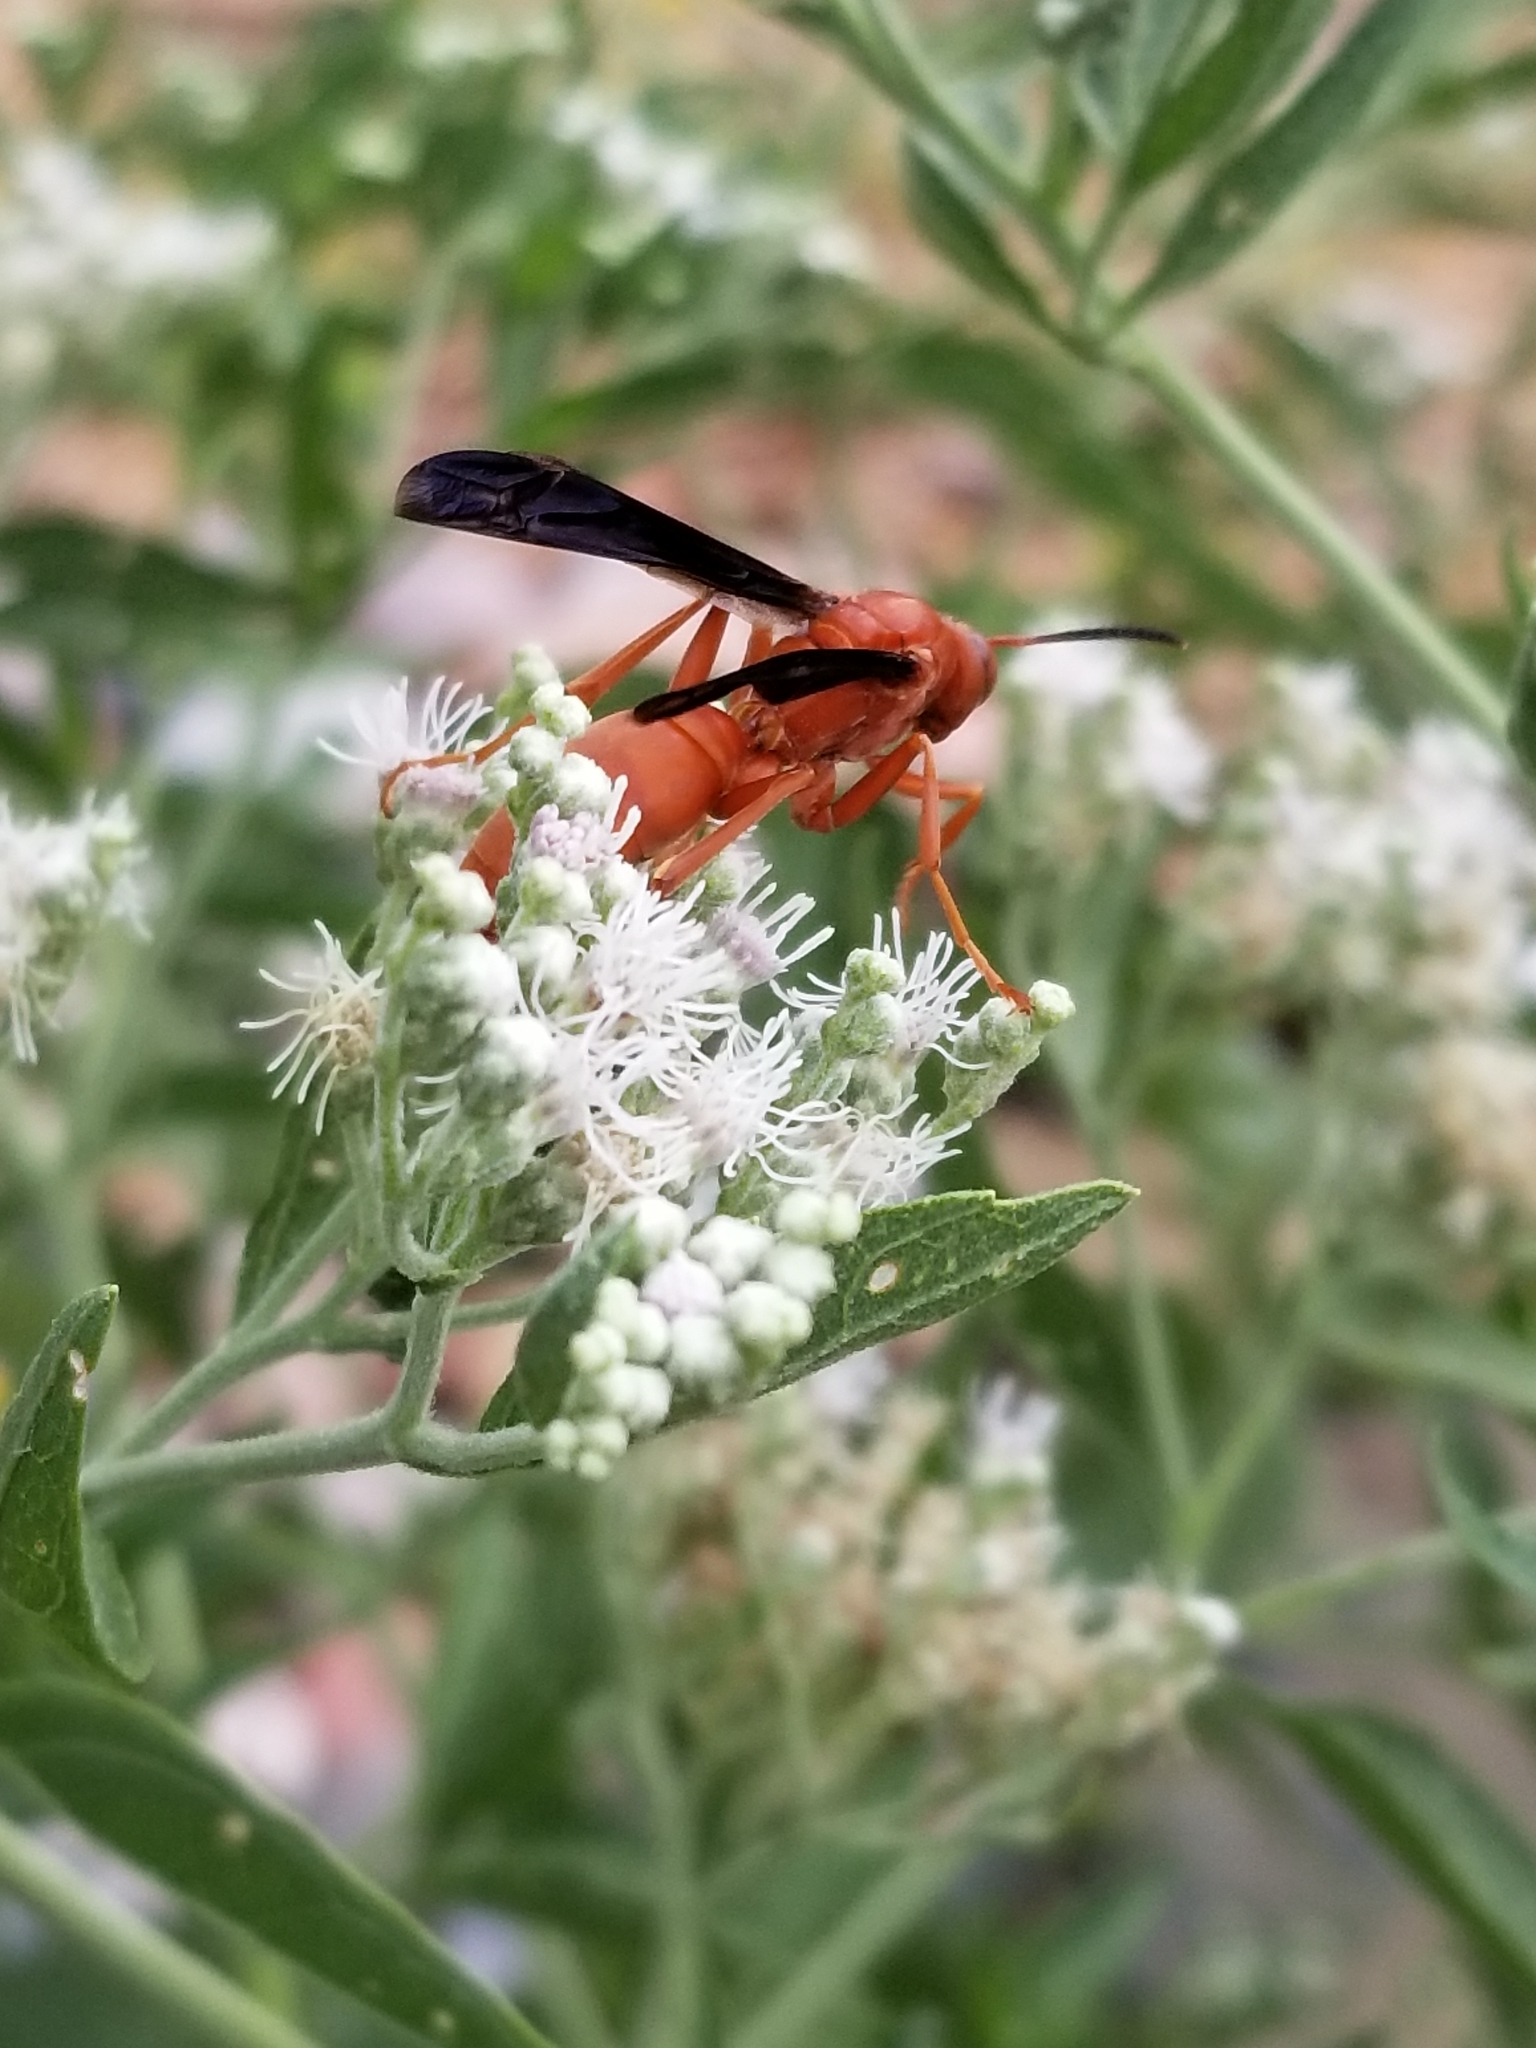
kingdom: Animalia
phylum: Arthropoda
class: Insecta
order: Hymenoptera
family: Eumenidae
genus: Polistes
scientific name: Polistes carolina
